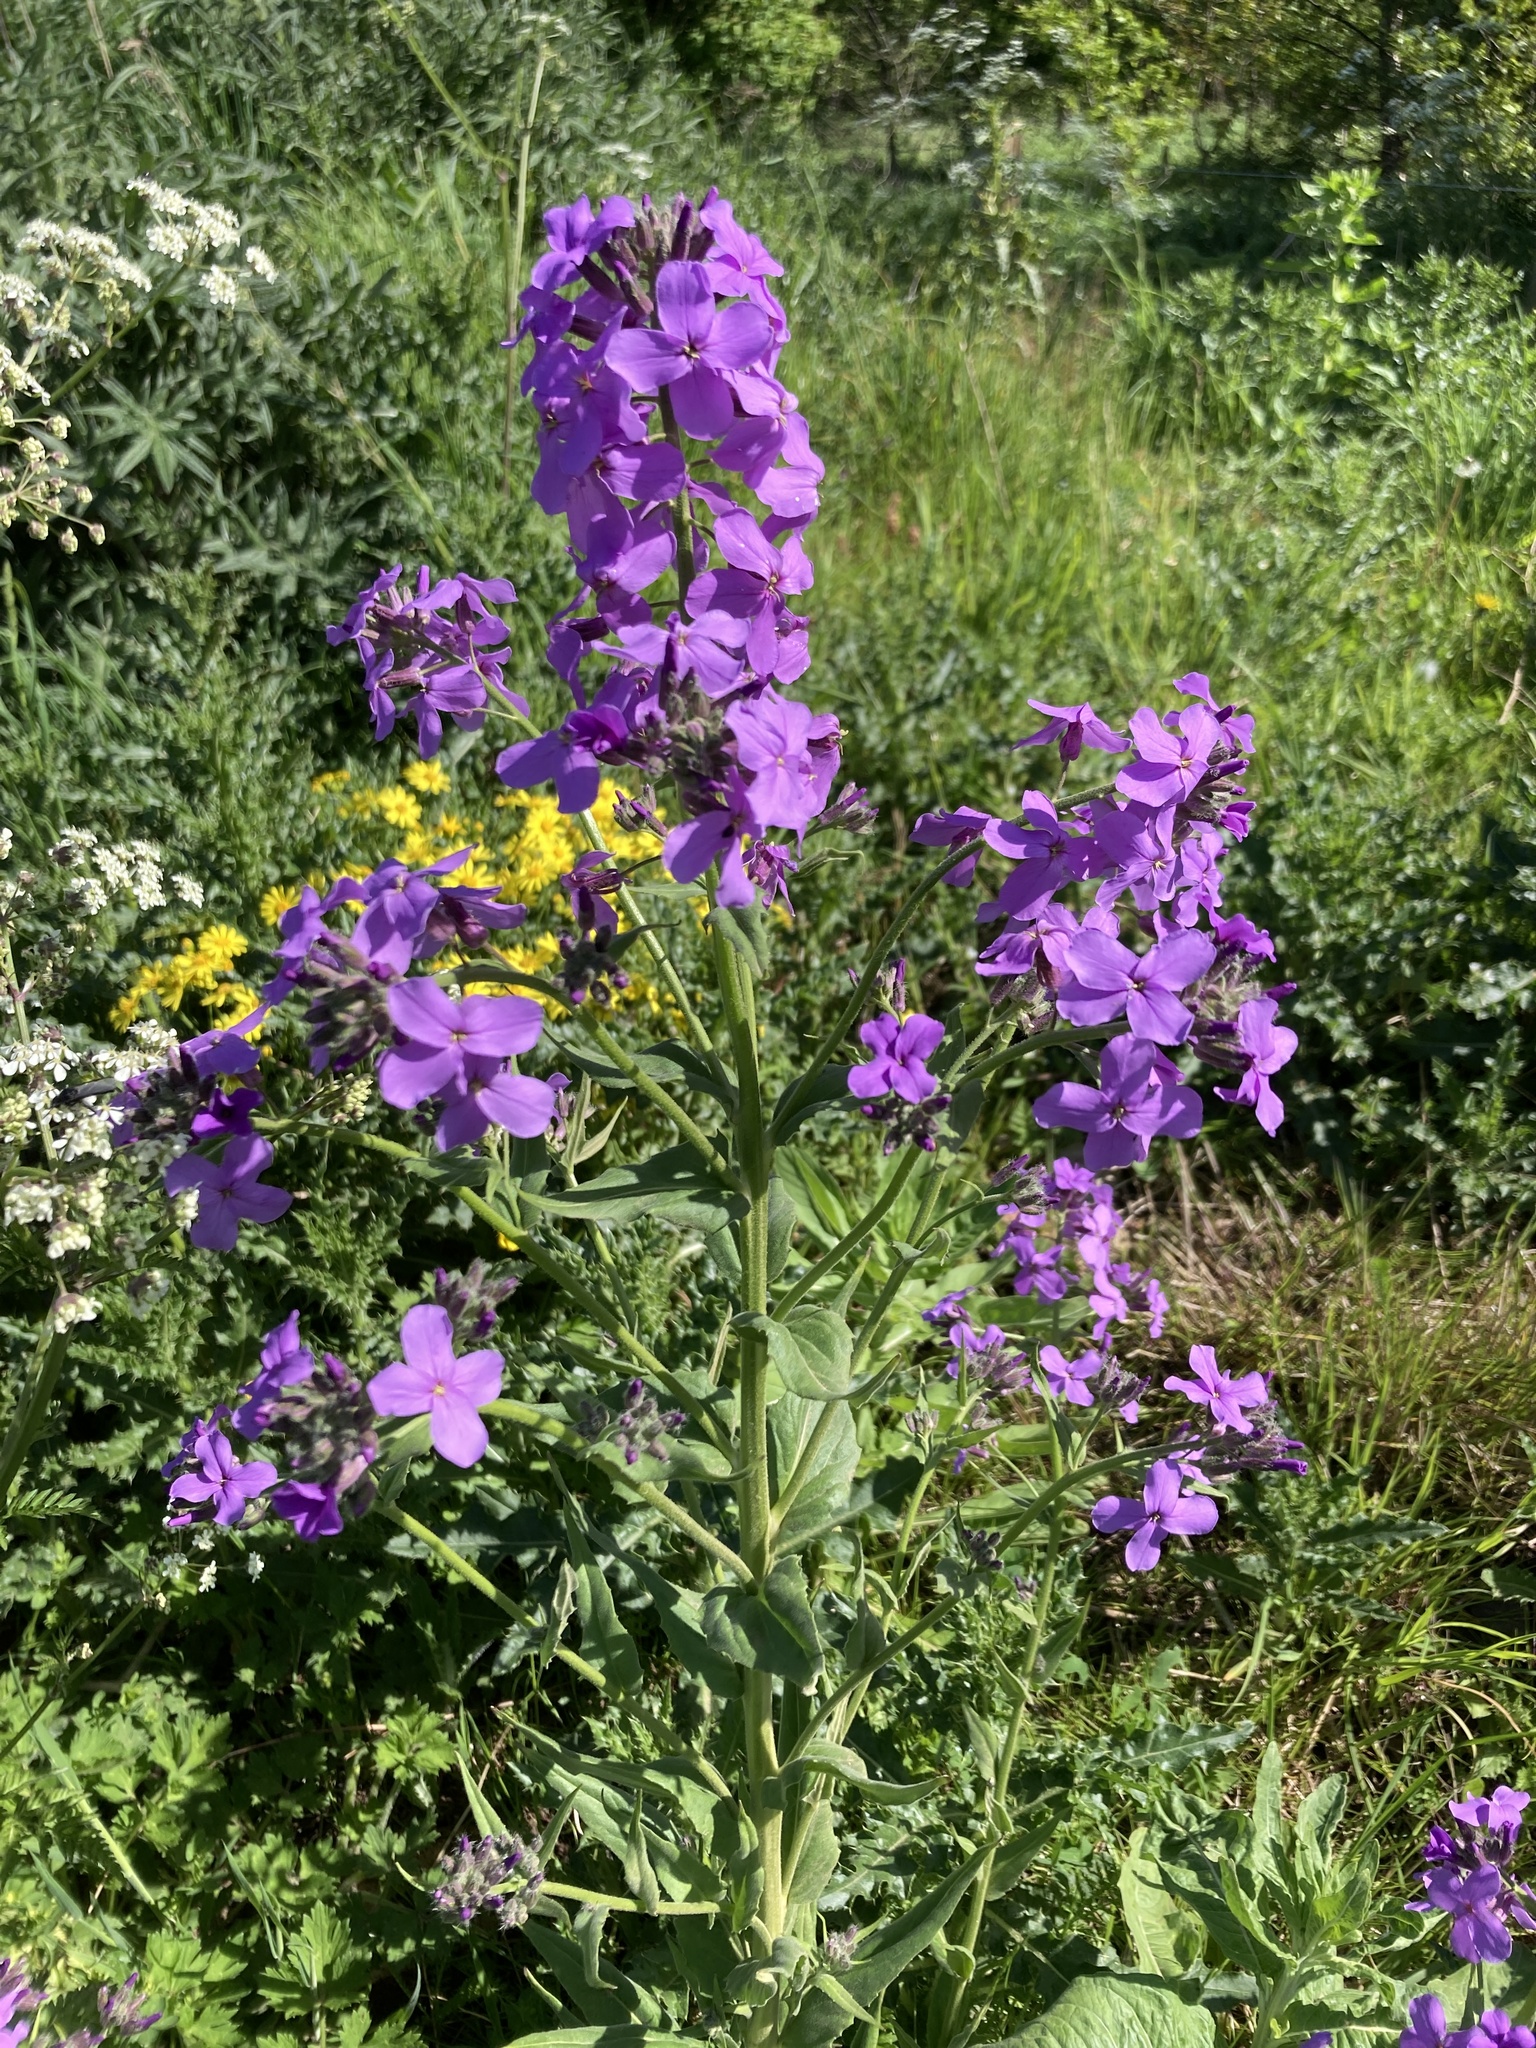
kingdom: Plantae
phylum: Tracheophyta
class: Magnoliopsida
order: Brassicales
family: Brassicaceae
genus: Hesperis
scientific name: Hesperis matronalis
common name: Dame's-violet
